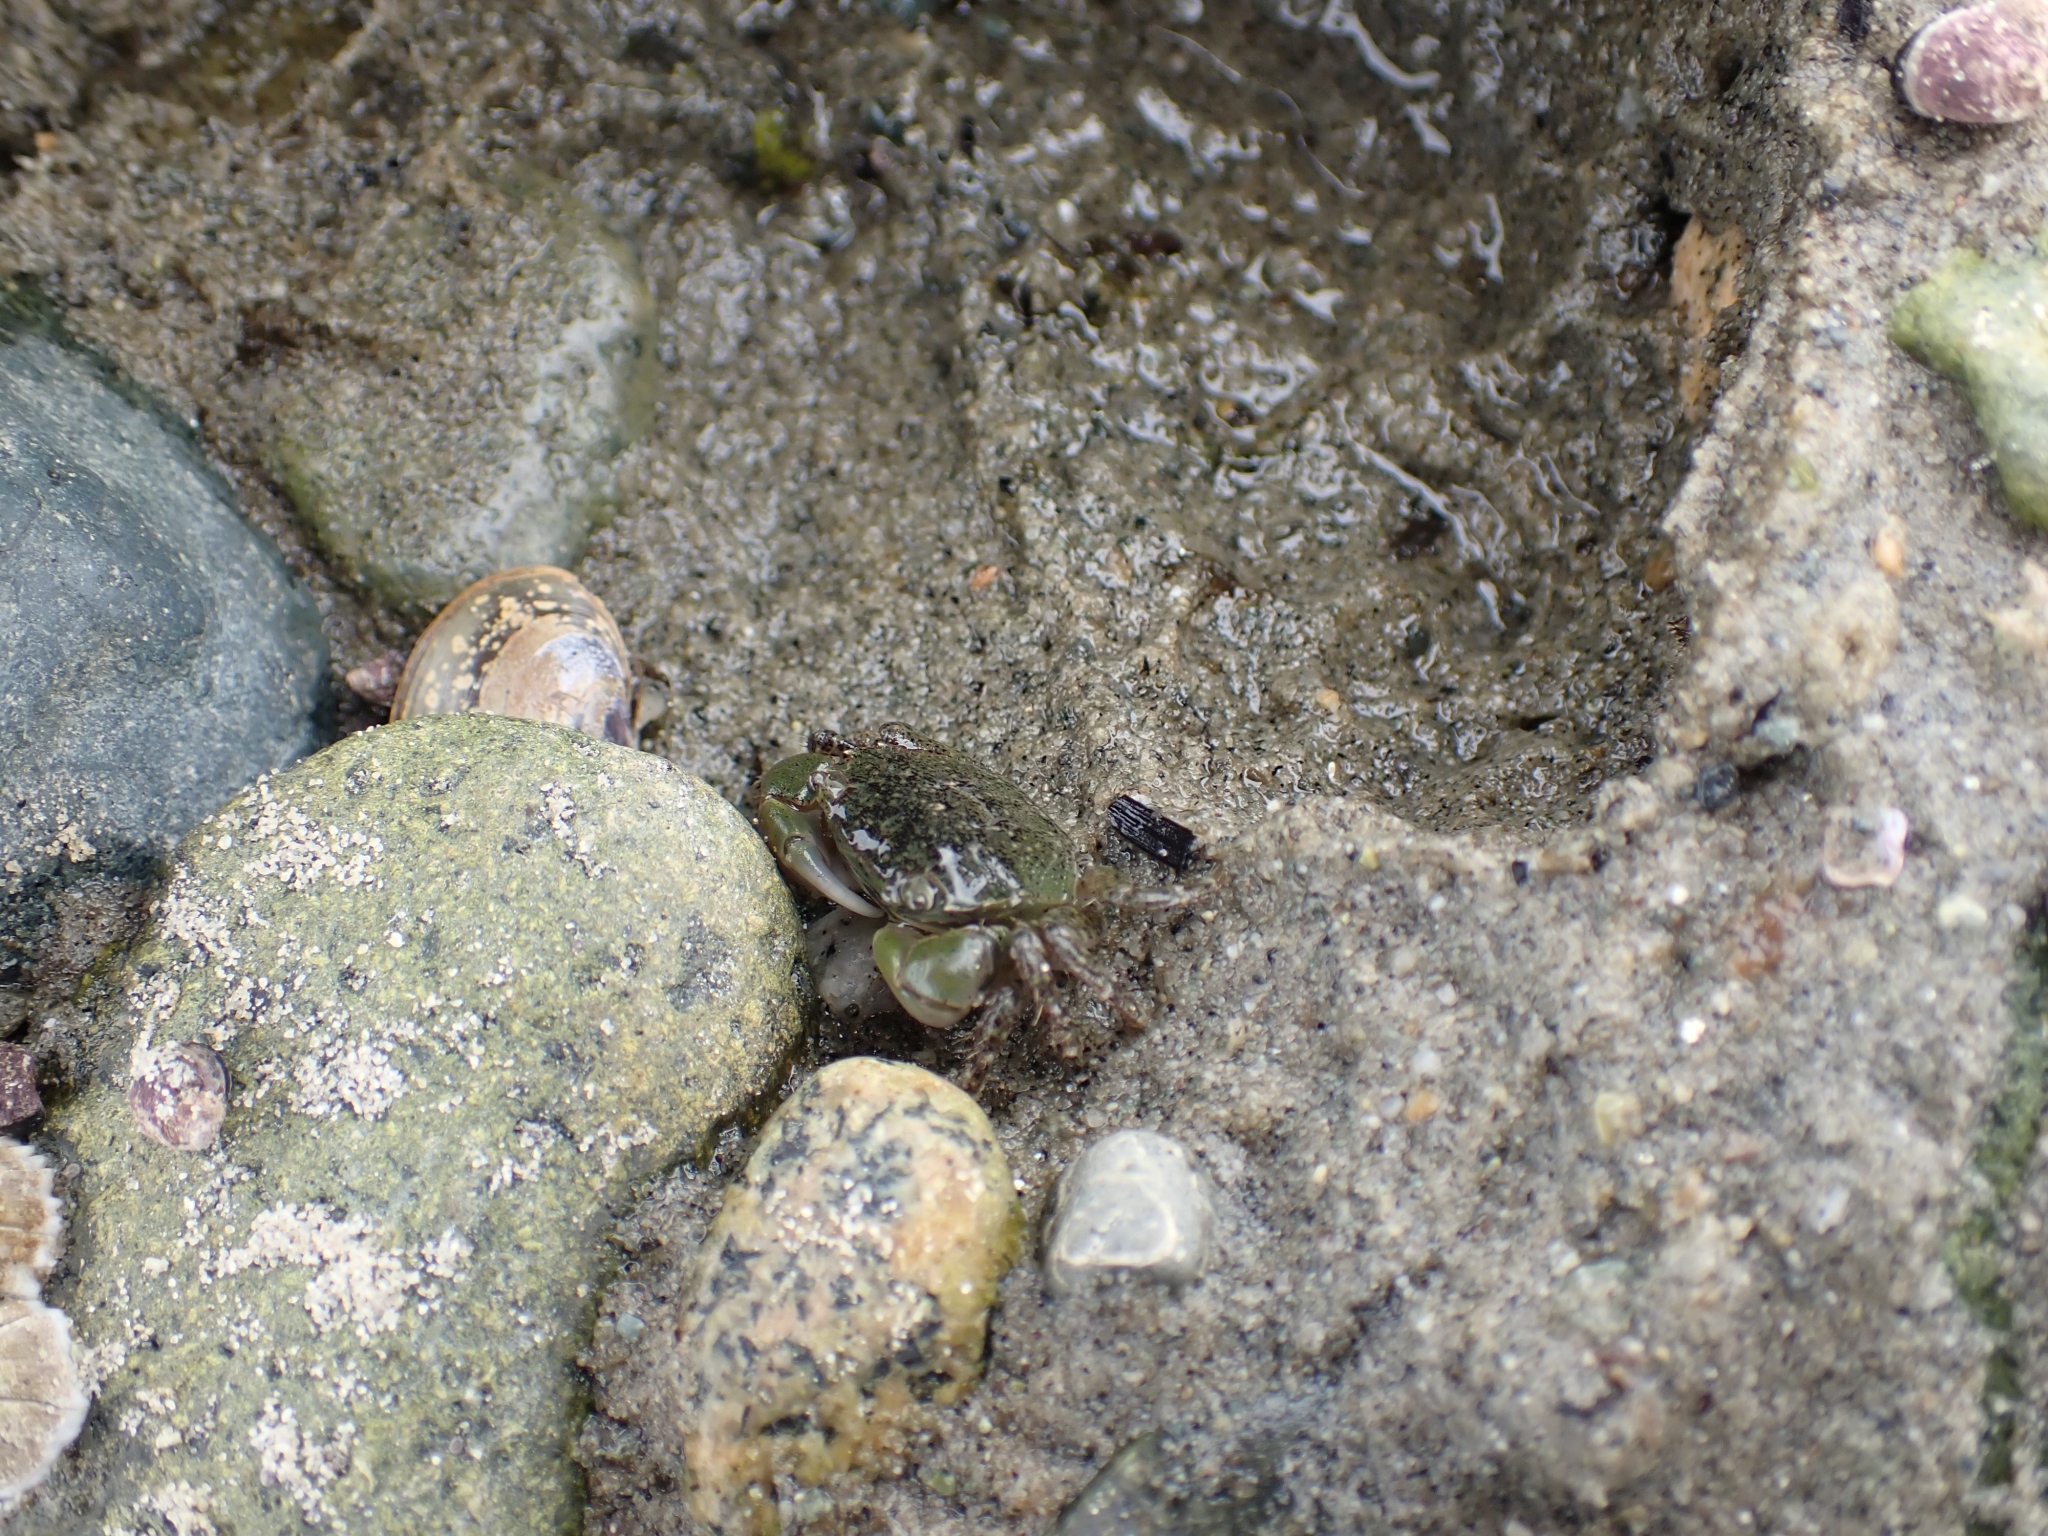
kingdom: Animalia
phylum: Arthropoda
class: Malacostraca
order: Decapoda
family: Varunidae
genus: Hemigrapsus
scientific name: Hemigrapsus oregonensis
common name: Yellow shore crab
